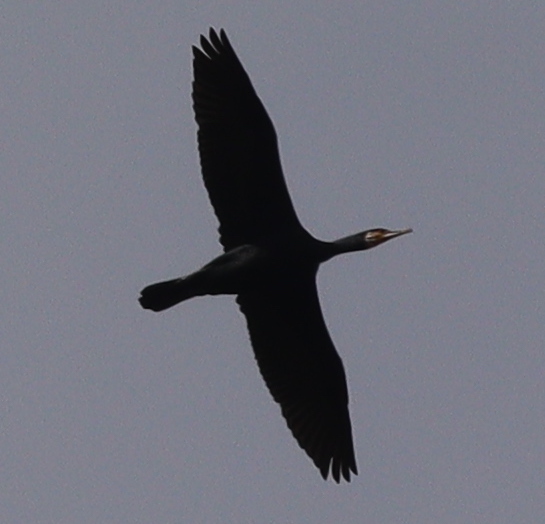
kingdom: Animalia
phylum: Chordata
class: Aves
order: Suliformes
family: Phalacrocoracidae
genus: Phalacrocorax
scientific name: Phalacrocorax carbo
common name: Great cormorant
